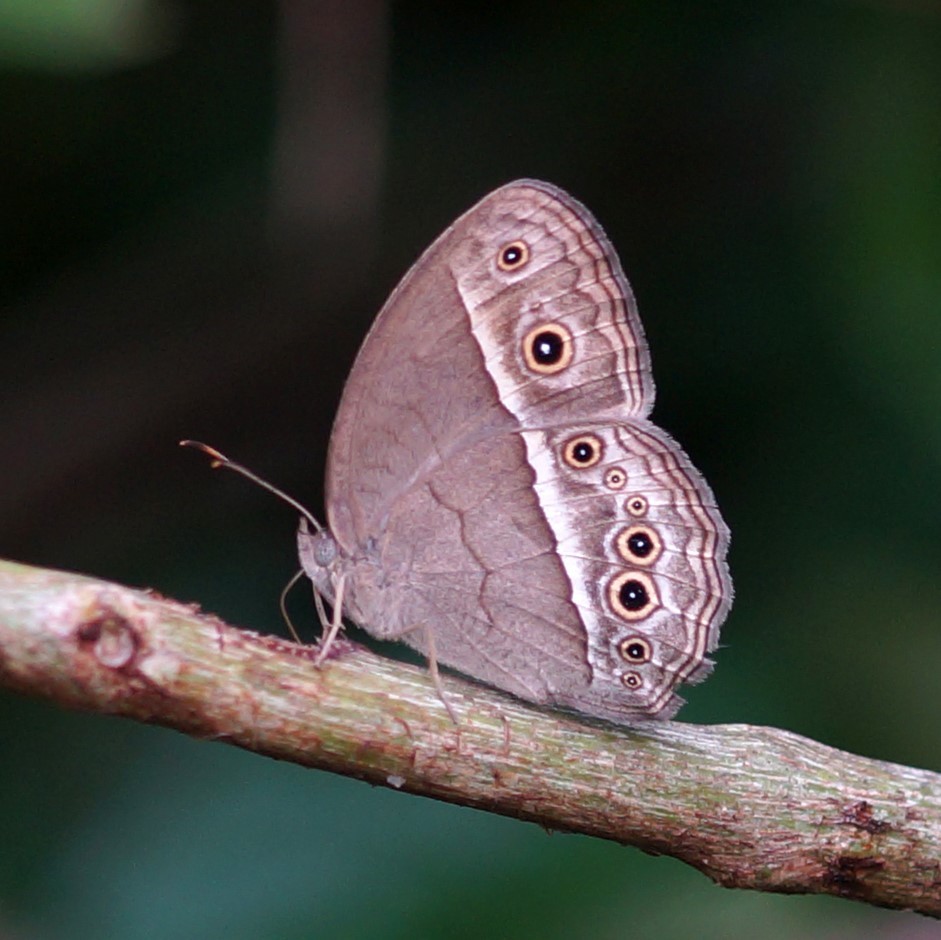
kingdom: Animalia
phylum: Arthropoda
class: Insecta
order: Lepidoptera
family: Nymphalidae
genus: Mycalesis
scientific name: Mycalesis perseoides
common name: Burmese bushbrown
